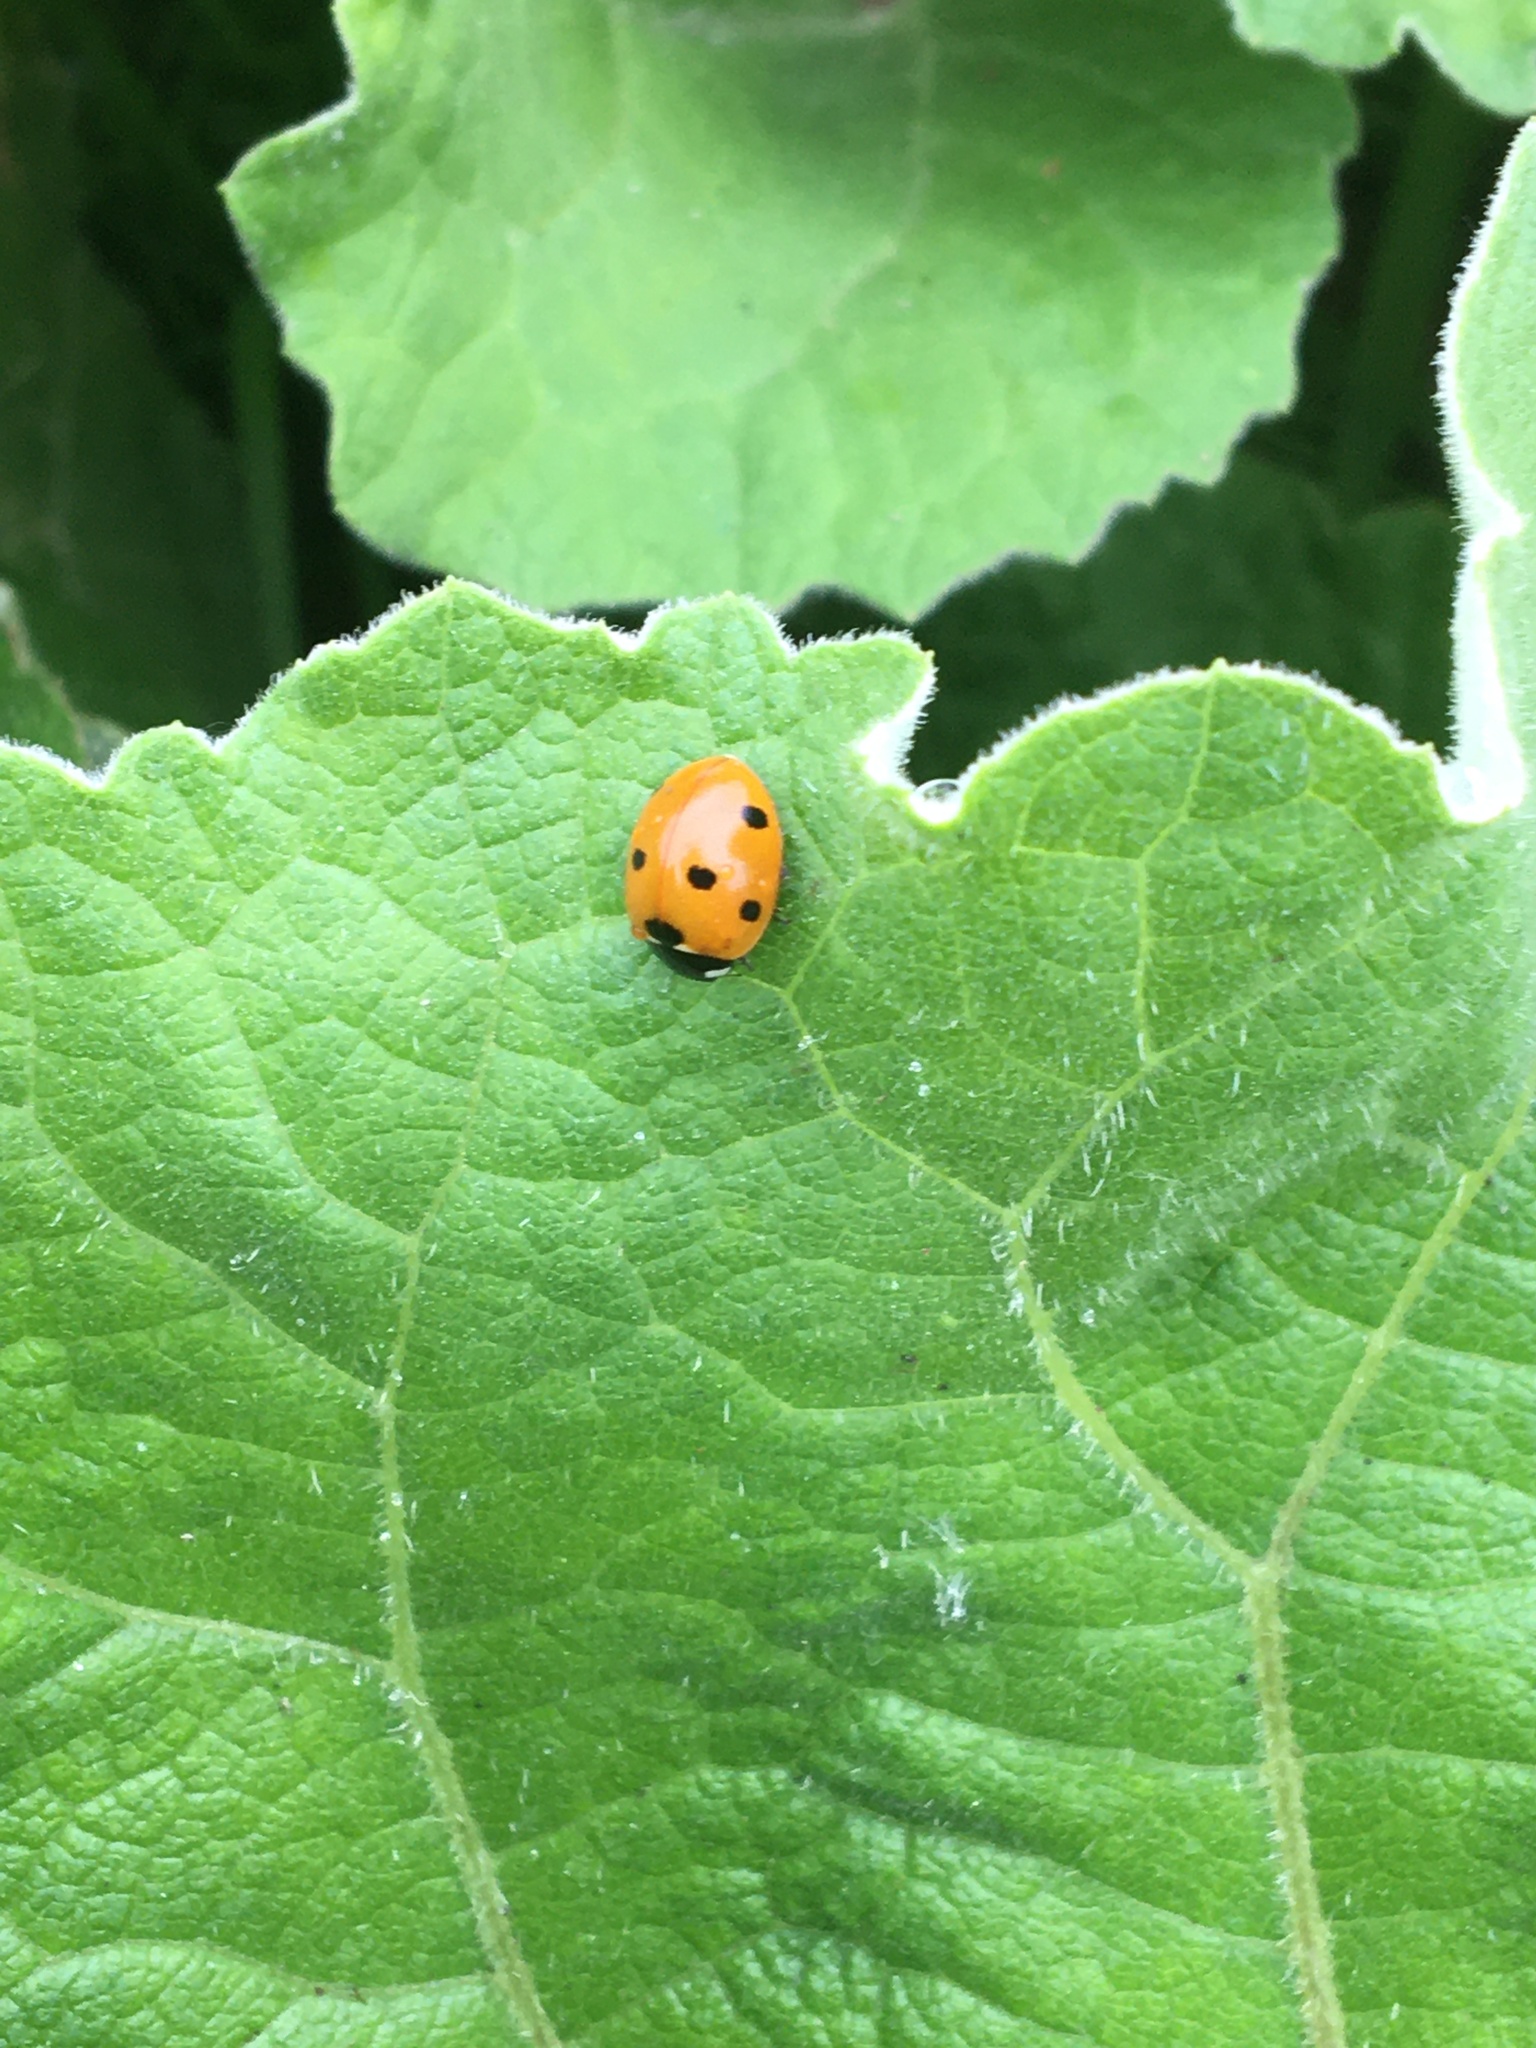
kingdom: Animalia
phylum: Arthropoda
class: Insecta
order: Coleoptera
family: Coccinellidae
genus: Coccinella
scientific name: Coccinella septempunctata
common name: Sevenspotted lady beetle
